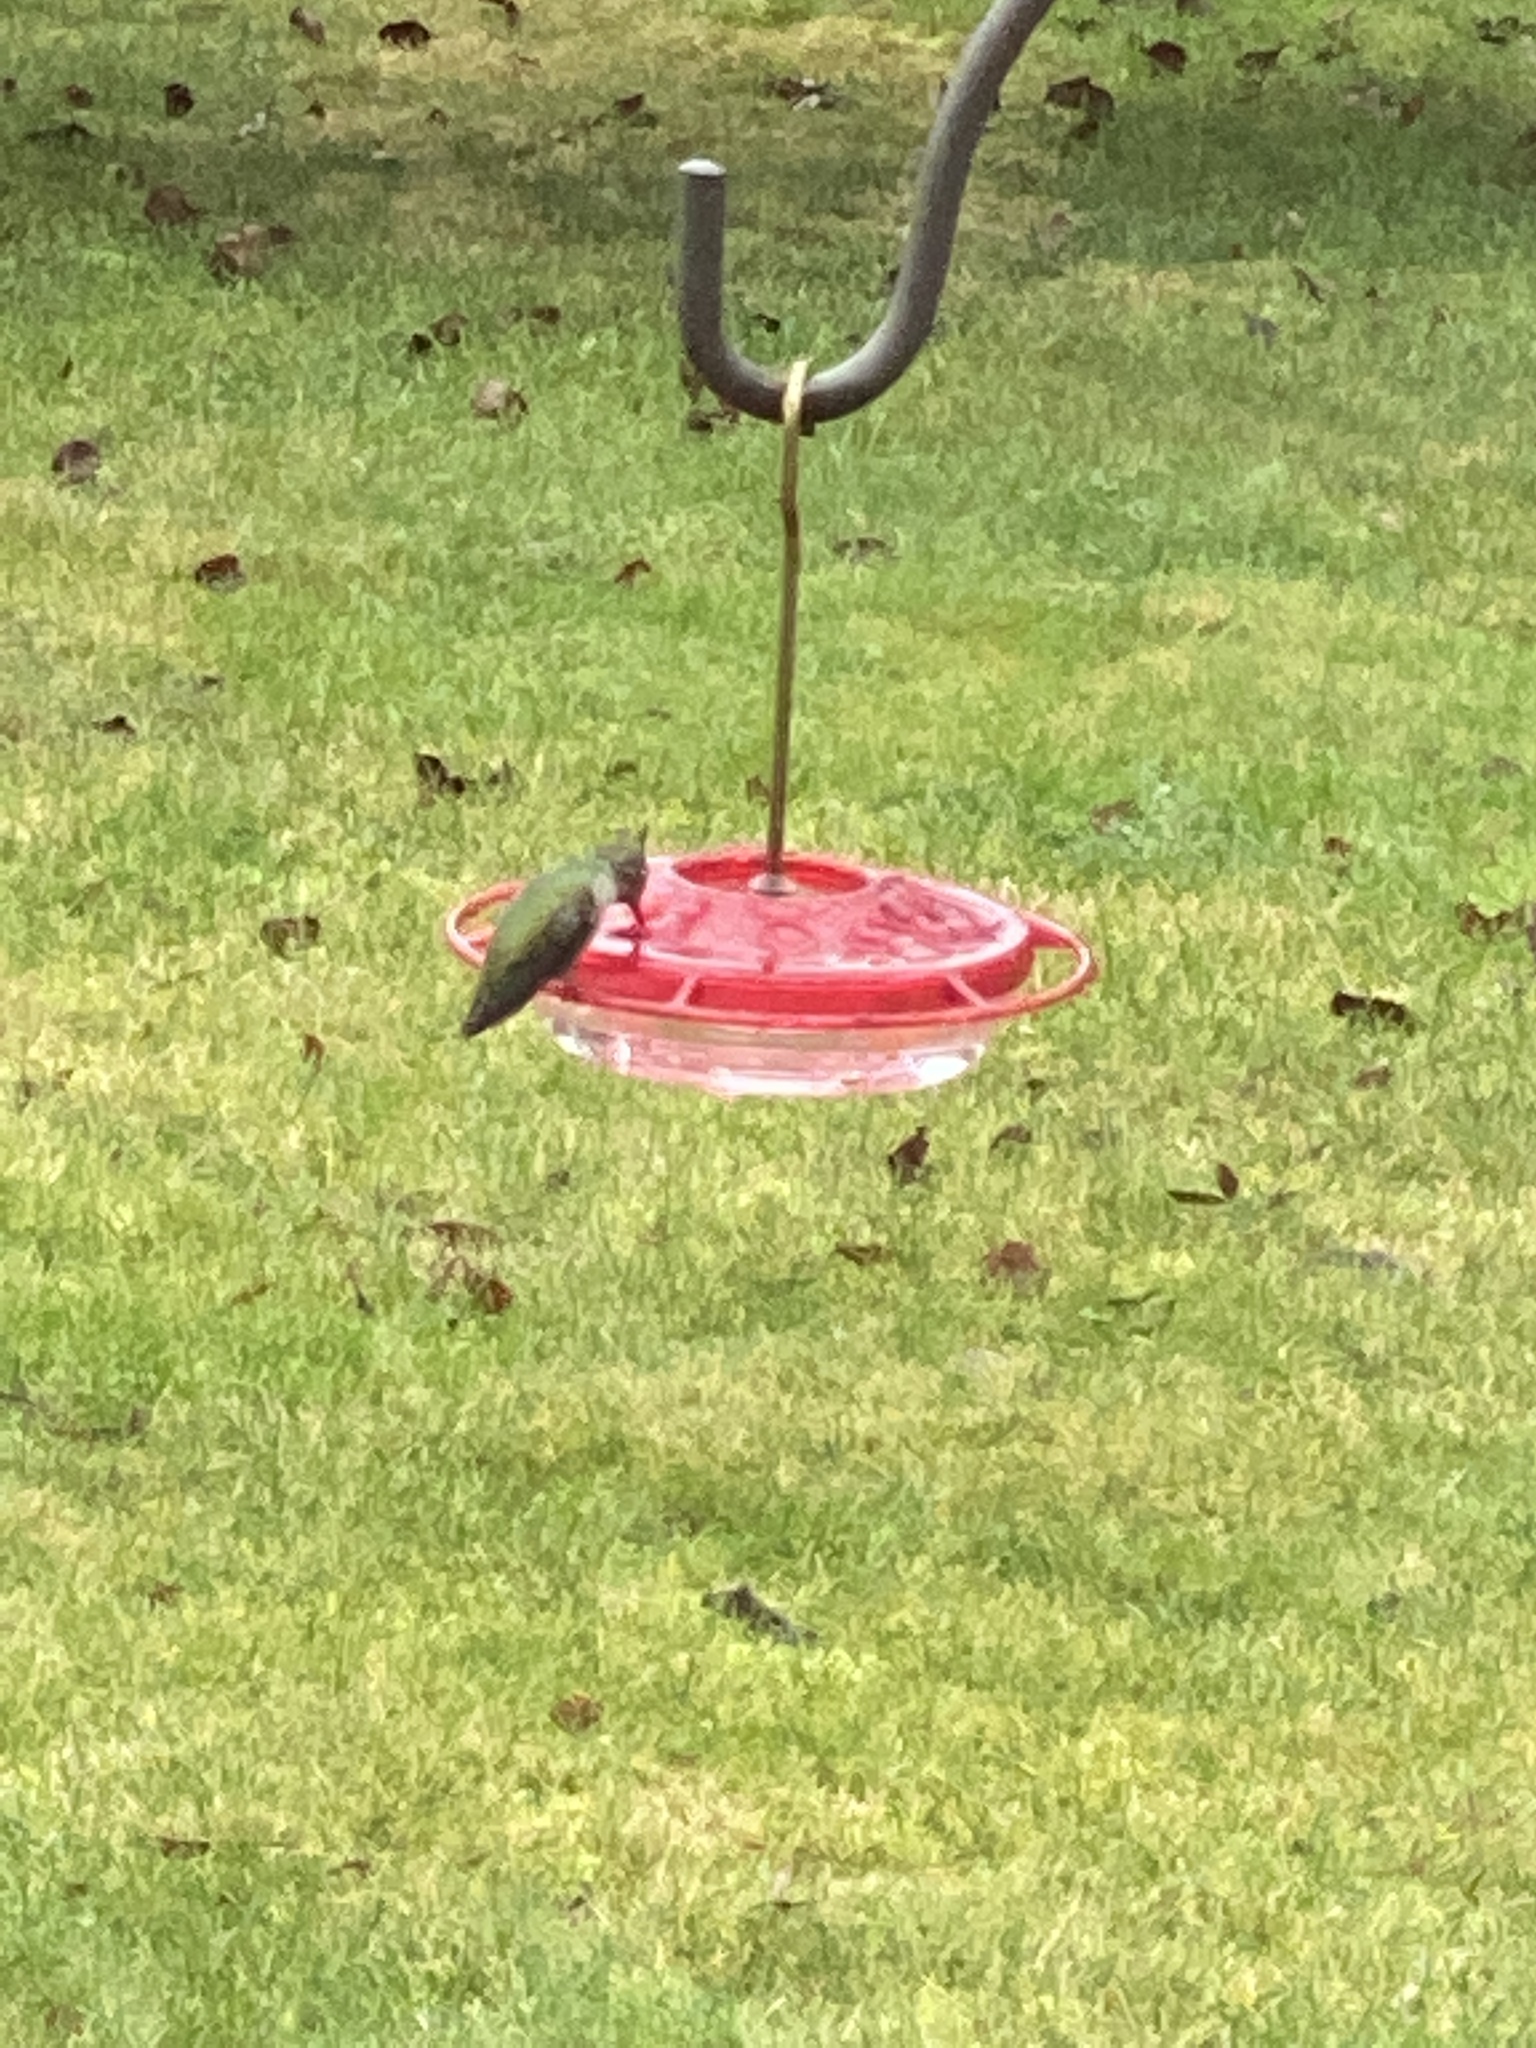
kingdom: Animalia
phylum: Chordata
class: Aves
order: Apodiformes
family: Trochilidae
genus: Calypte
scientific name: Calypte anna
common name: Anna's hummingbird
